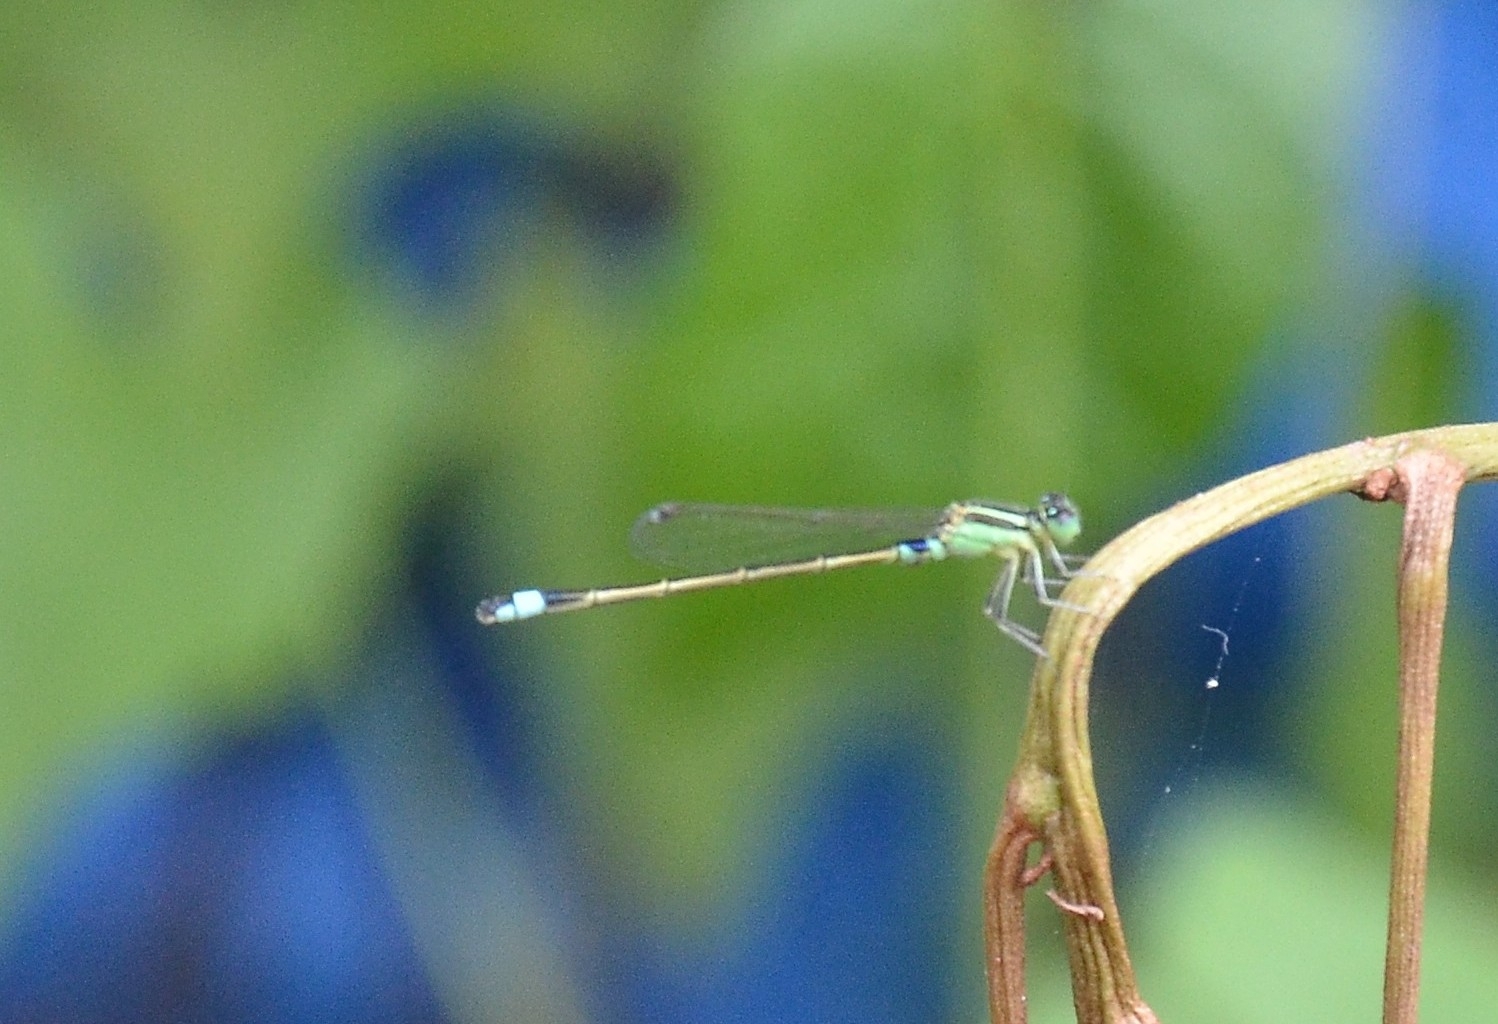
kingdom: Animalia
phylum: Arthropoda
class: Insecta
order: Odonata
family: Coenagrionidae
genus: Ischnura
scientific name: Ischnura senegalensis
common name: Tropical bluetail
